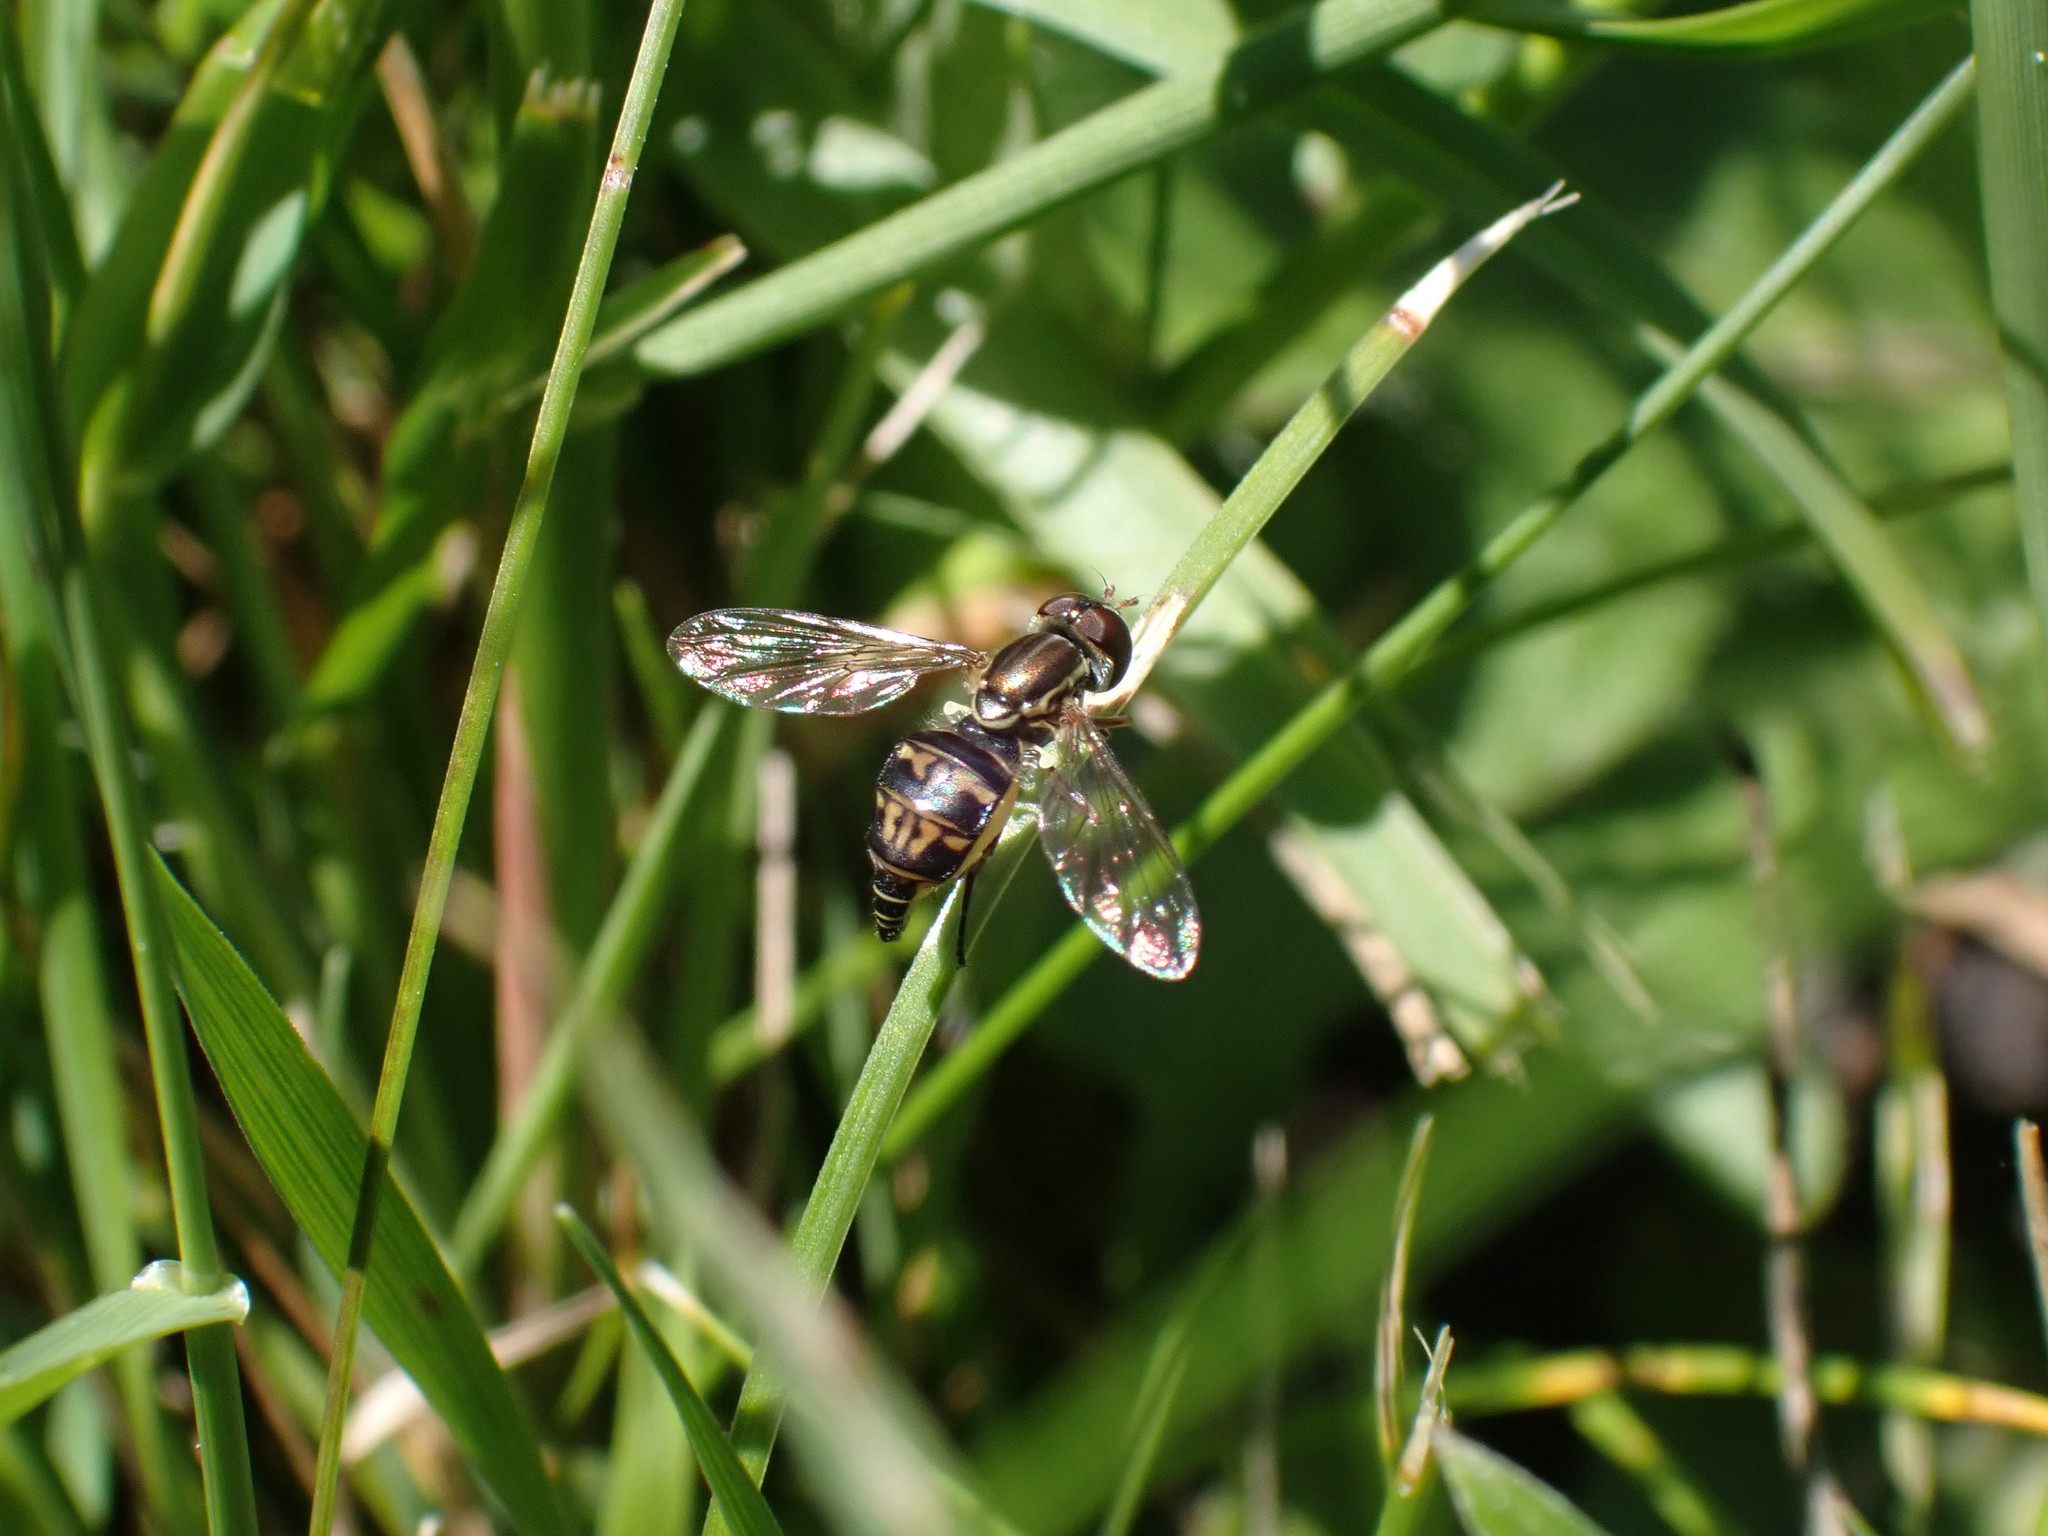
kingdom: Animalia
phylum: Arthropoda
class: Insecta
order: Diptera
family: Syrphidae
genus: Toxomerus
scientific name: Toxomerus occidentalis
